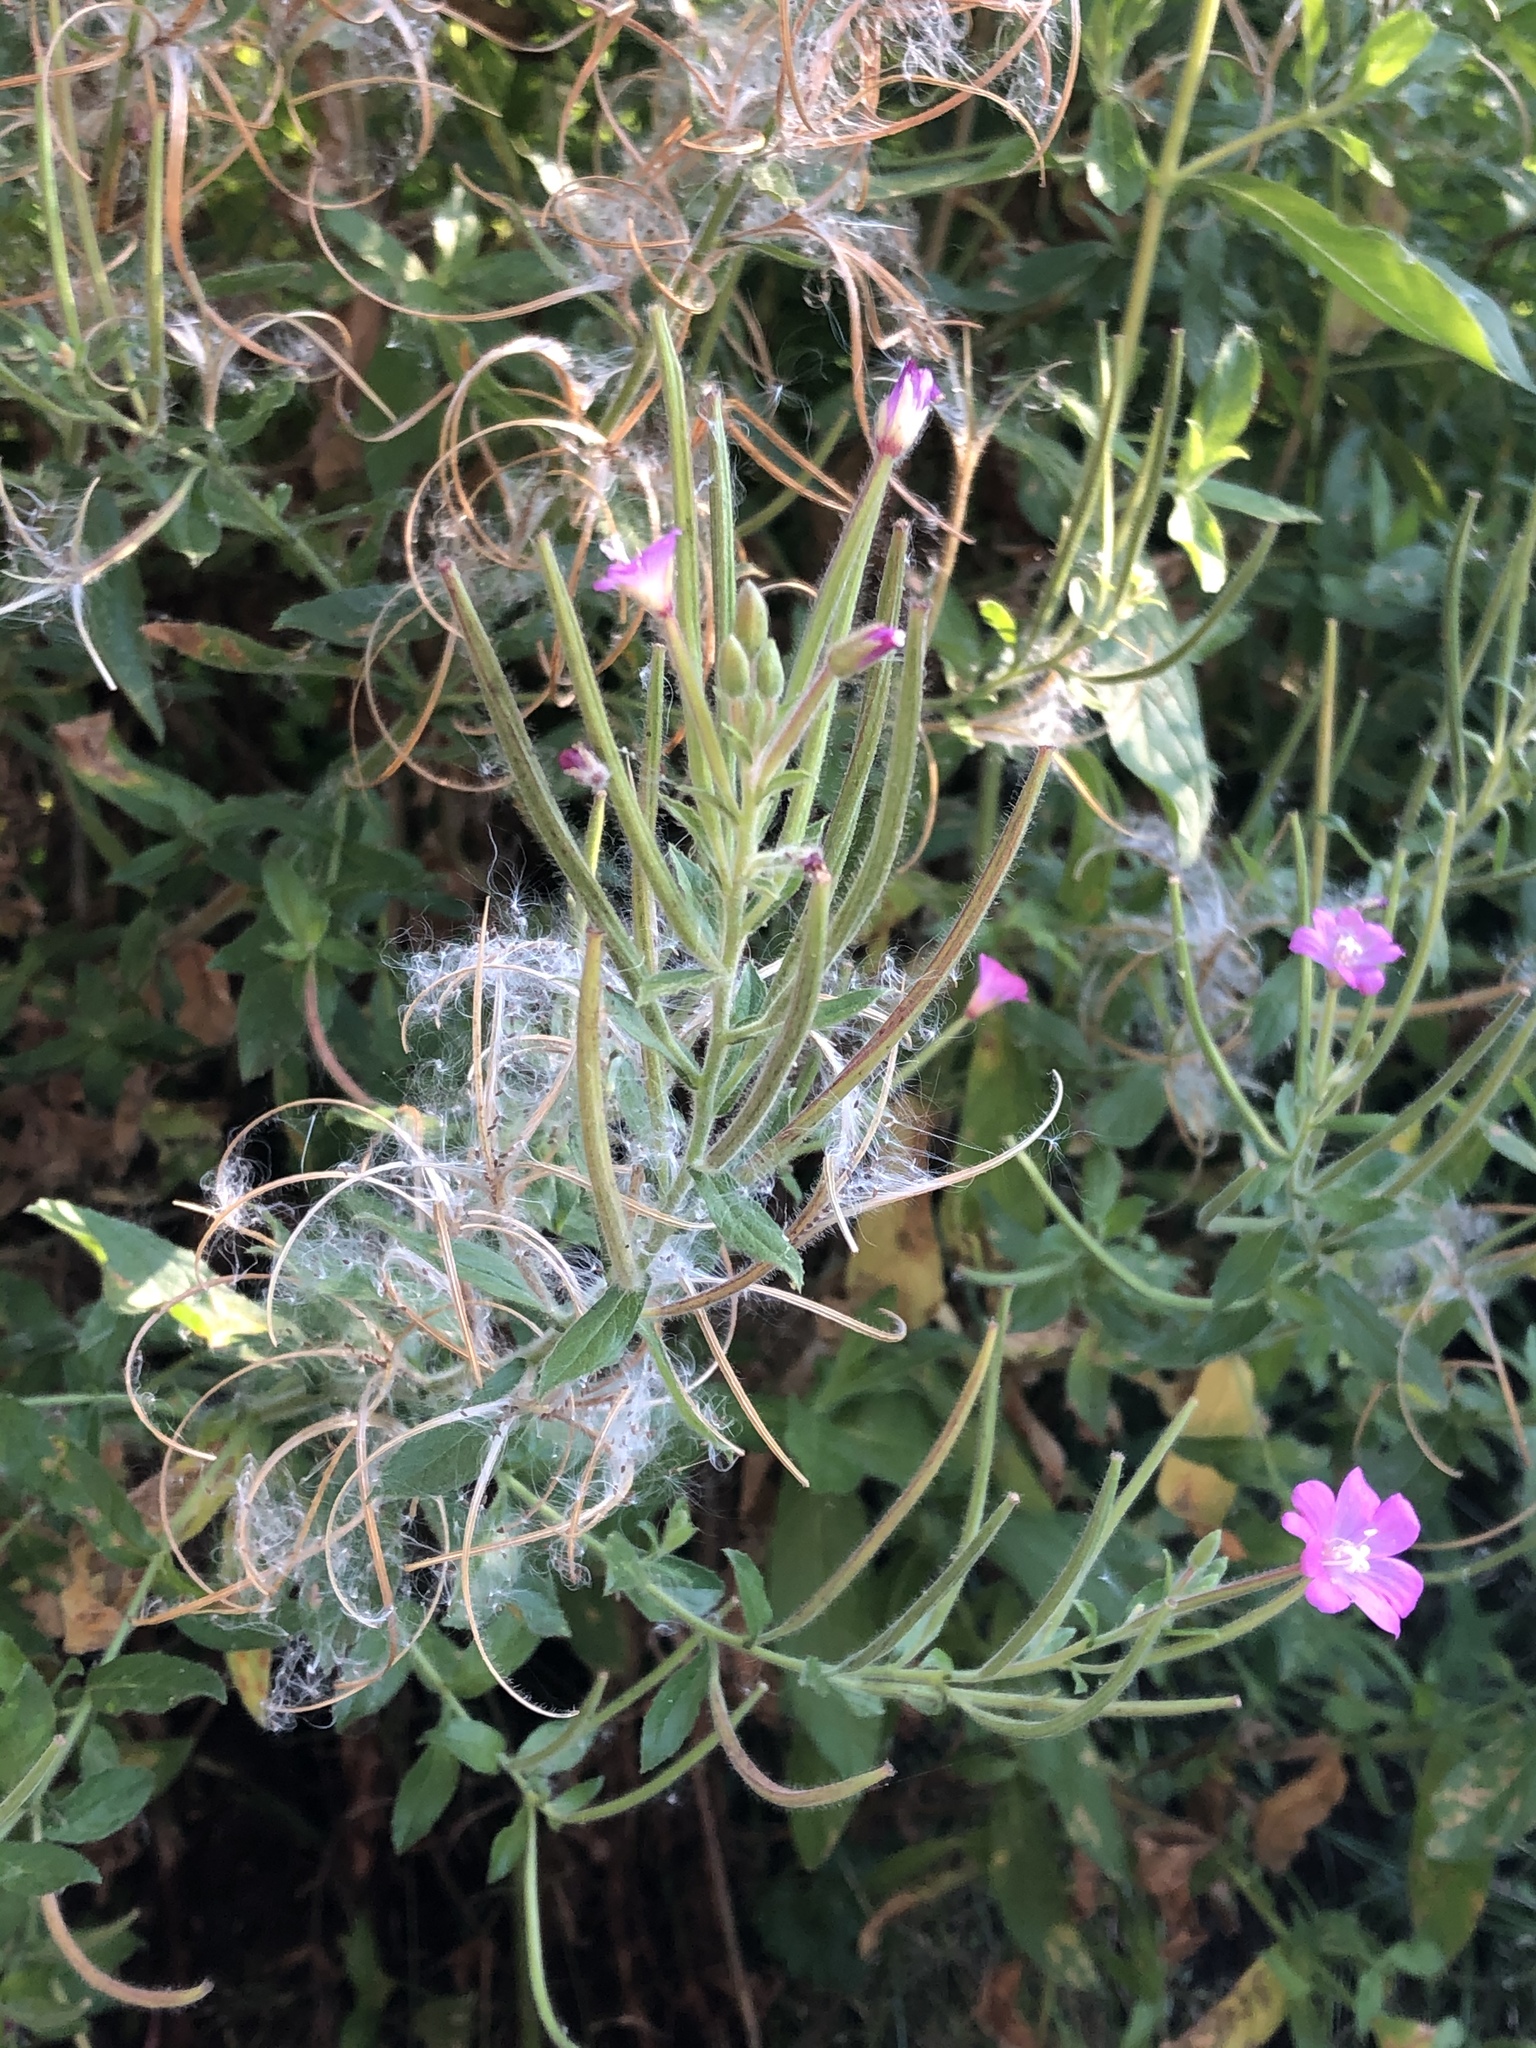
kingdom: Plantae
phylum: Tracheophyta
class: Magnoliopsida
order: Myrtales
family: Onagraceae
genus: Epilobium
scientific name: Epilobium hirsutum
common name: Great willowherb
